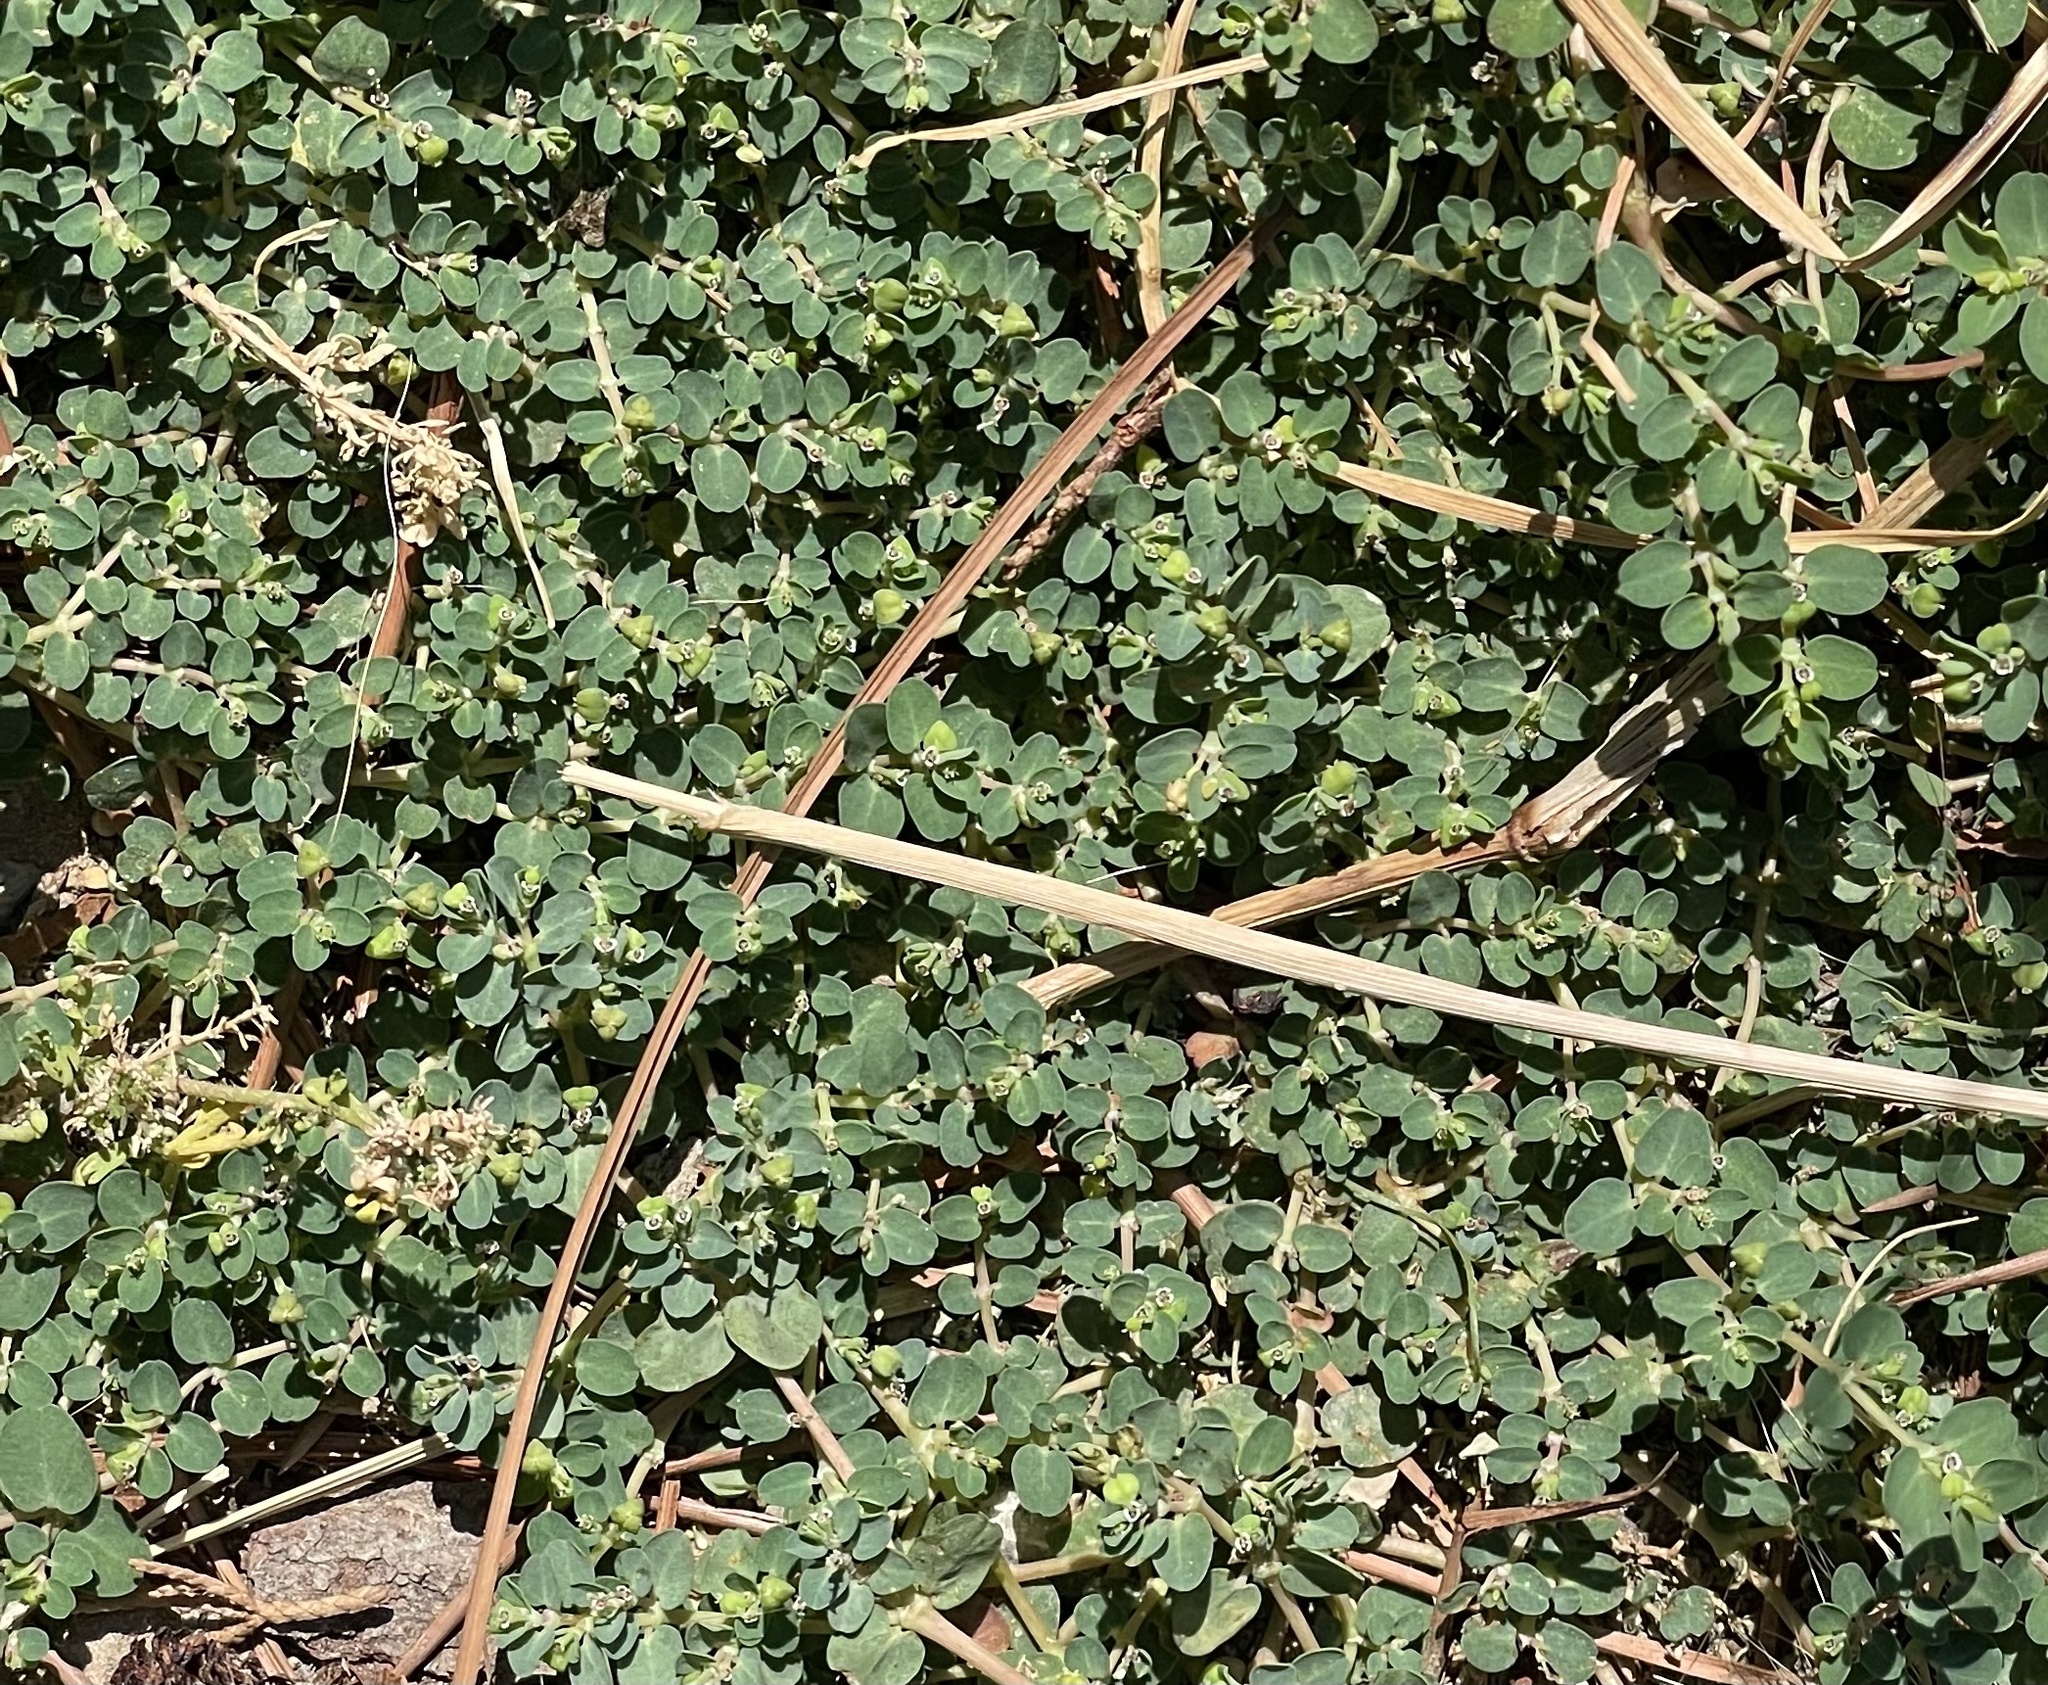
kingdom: Plantae
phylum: Tracheophyta
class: Magnoliopsida
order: Malpighiales
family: Euphorbiaceae
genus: Euphorbia
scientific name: Euphorbia serpens
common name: Matted sandmat
